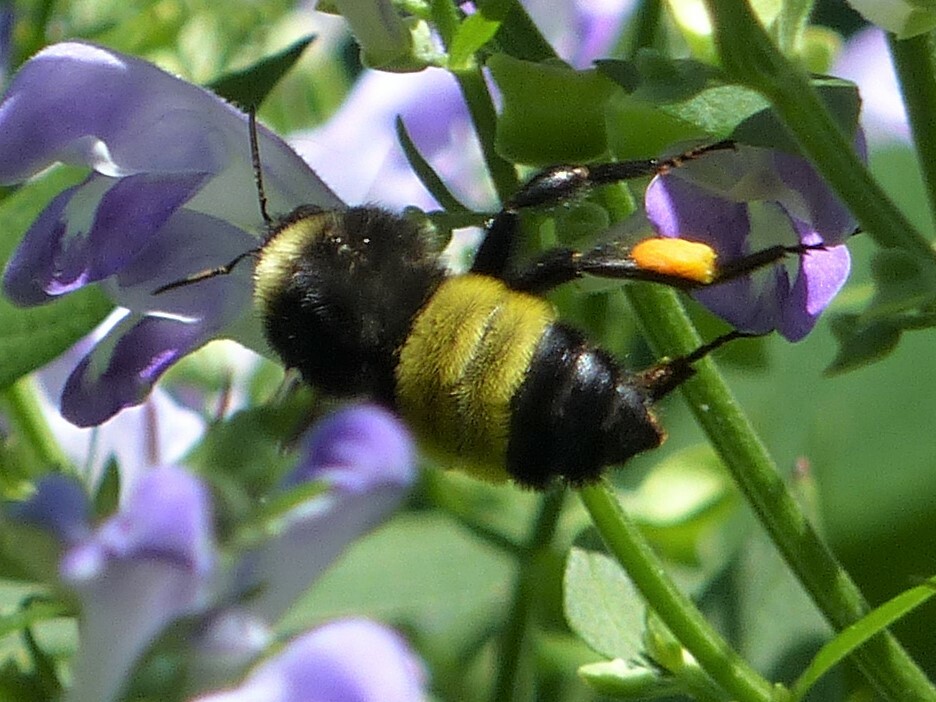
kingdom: Animalia
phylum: Arthropoda
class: Insecta
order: Hymenoptera
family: Apidae
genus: Bombus
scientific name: Bombus pensylvanicus
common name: Bumble bee
